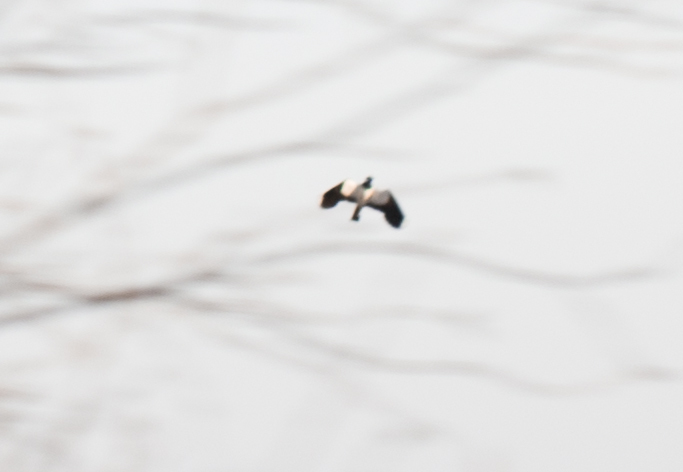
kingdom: Animalia
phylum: Chordata
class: Aves
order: Charadriiformes
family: Charadriidae
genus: Vanellus
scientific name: Vanellus vanellus
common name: Northern lapwing
